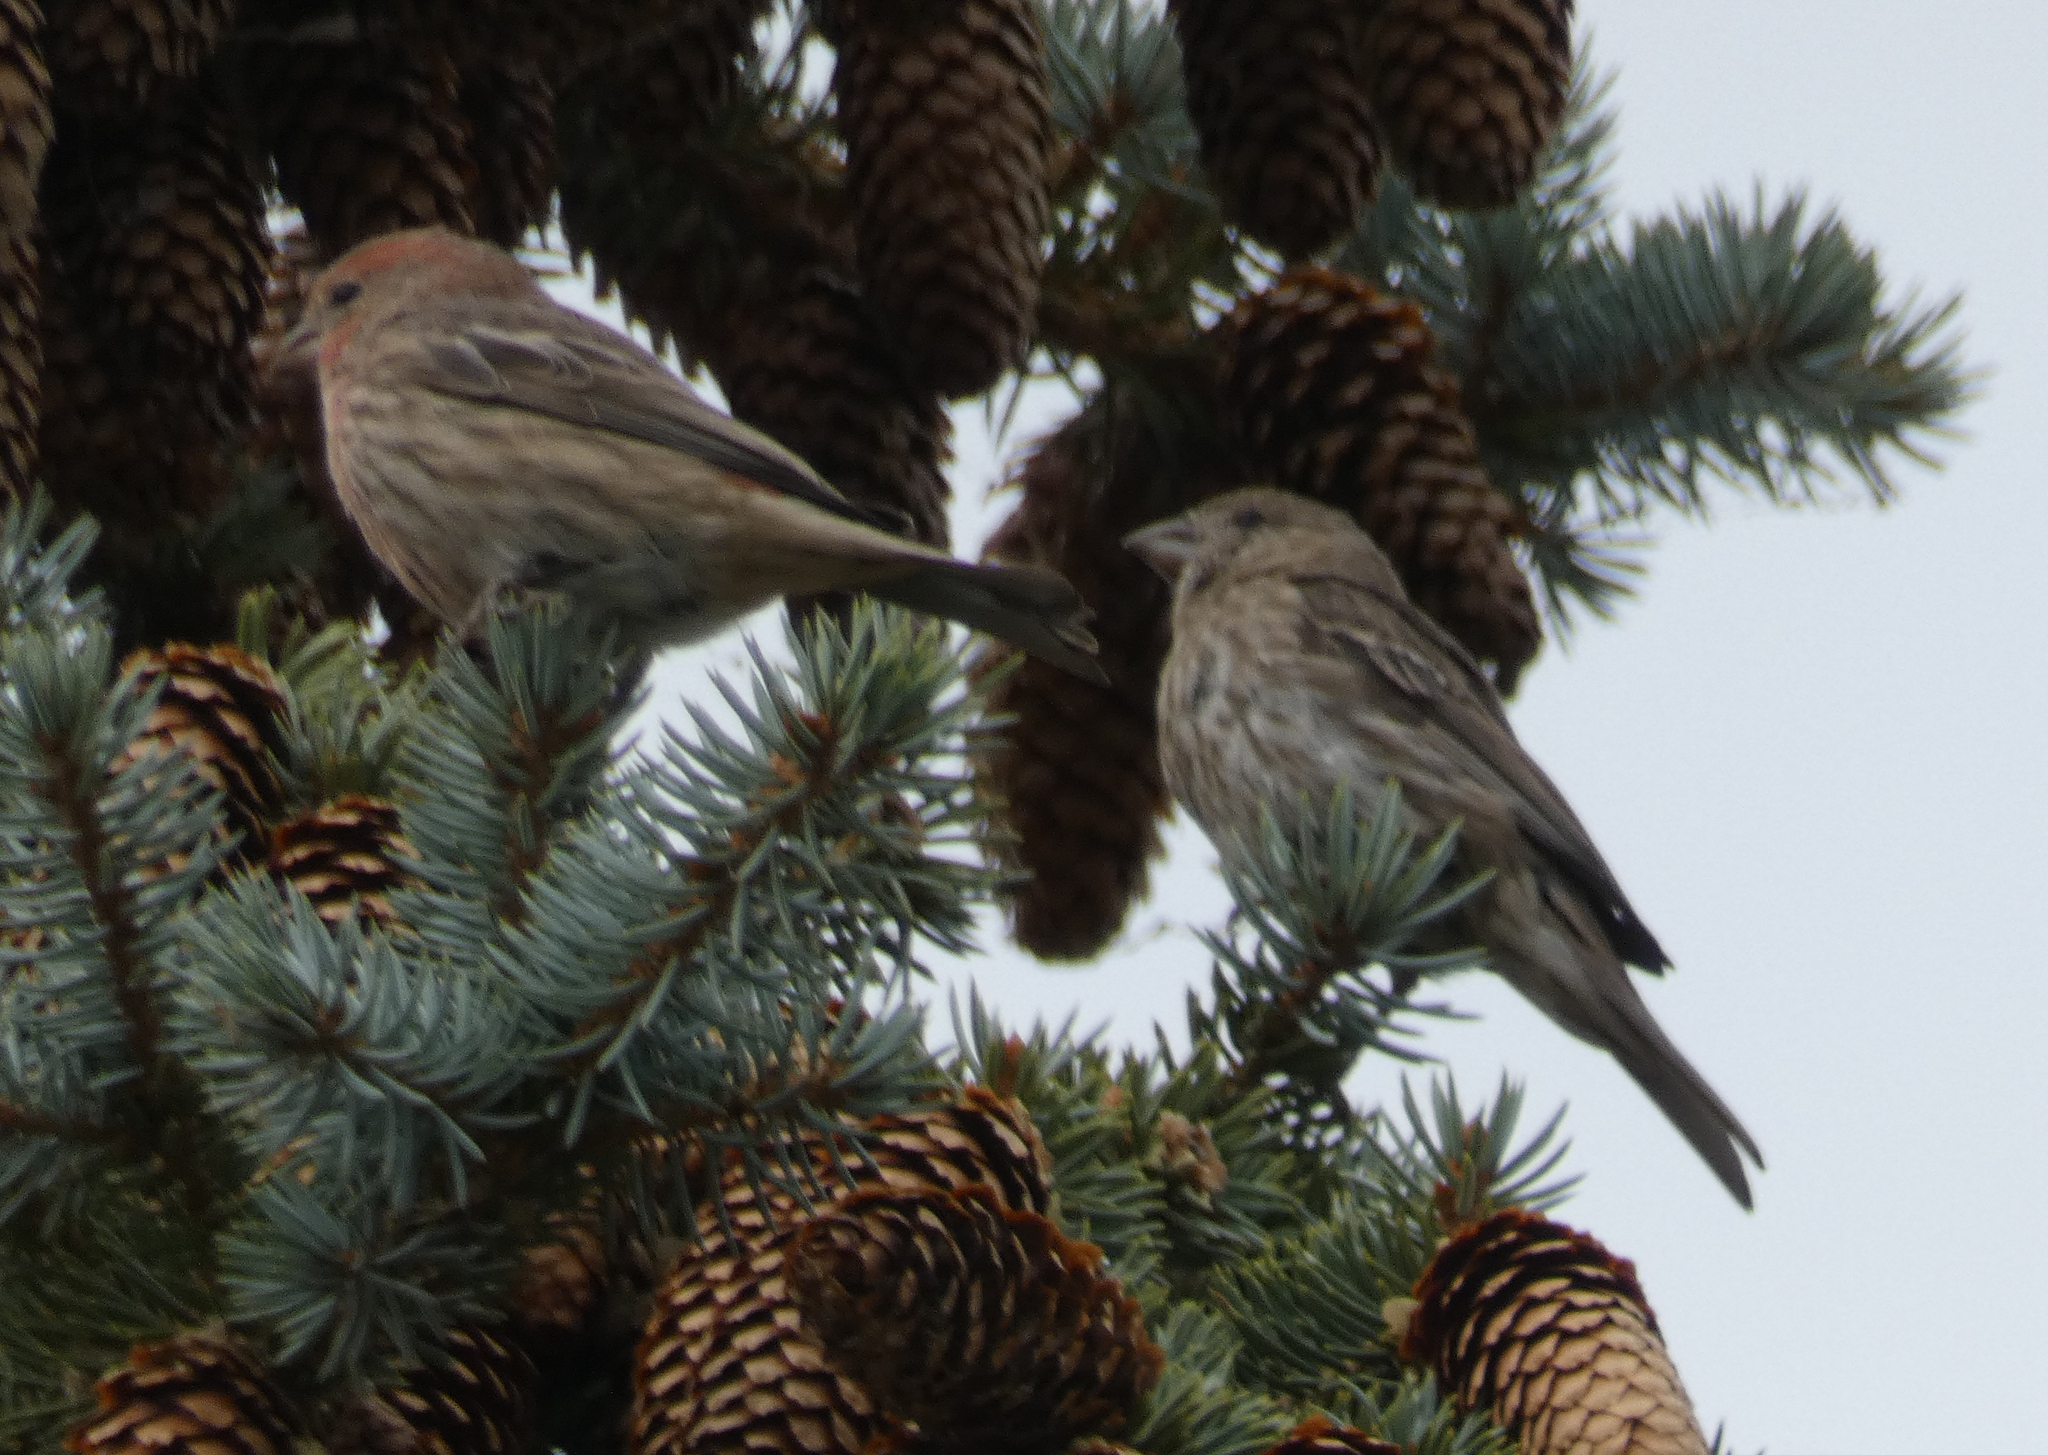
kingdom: Animalia
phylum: Chordata
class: Aves
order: Passeriformes
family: Fringillidae
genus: Haemorhous
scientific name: Haemorhous mexicanus
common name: House finch
